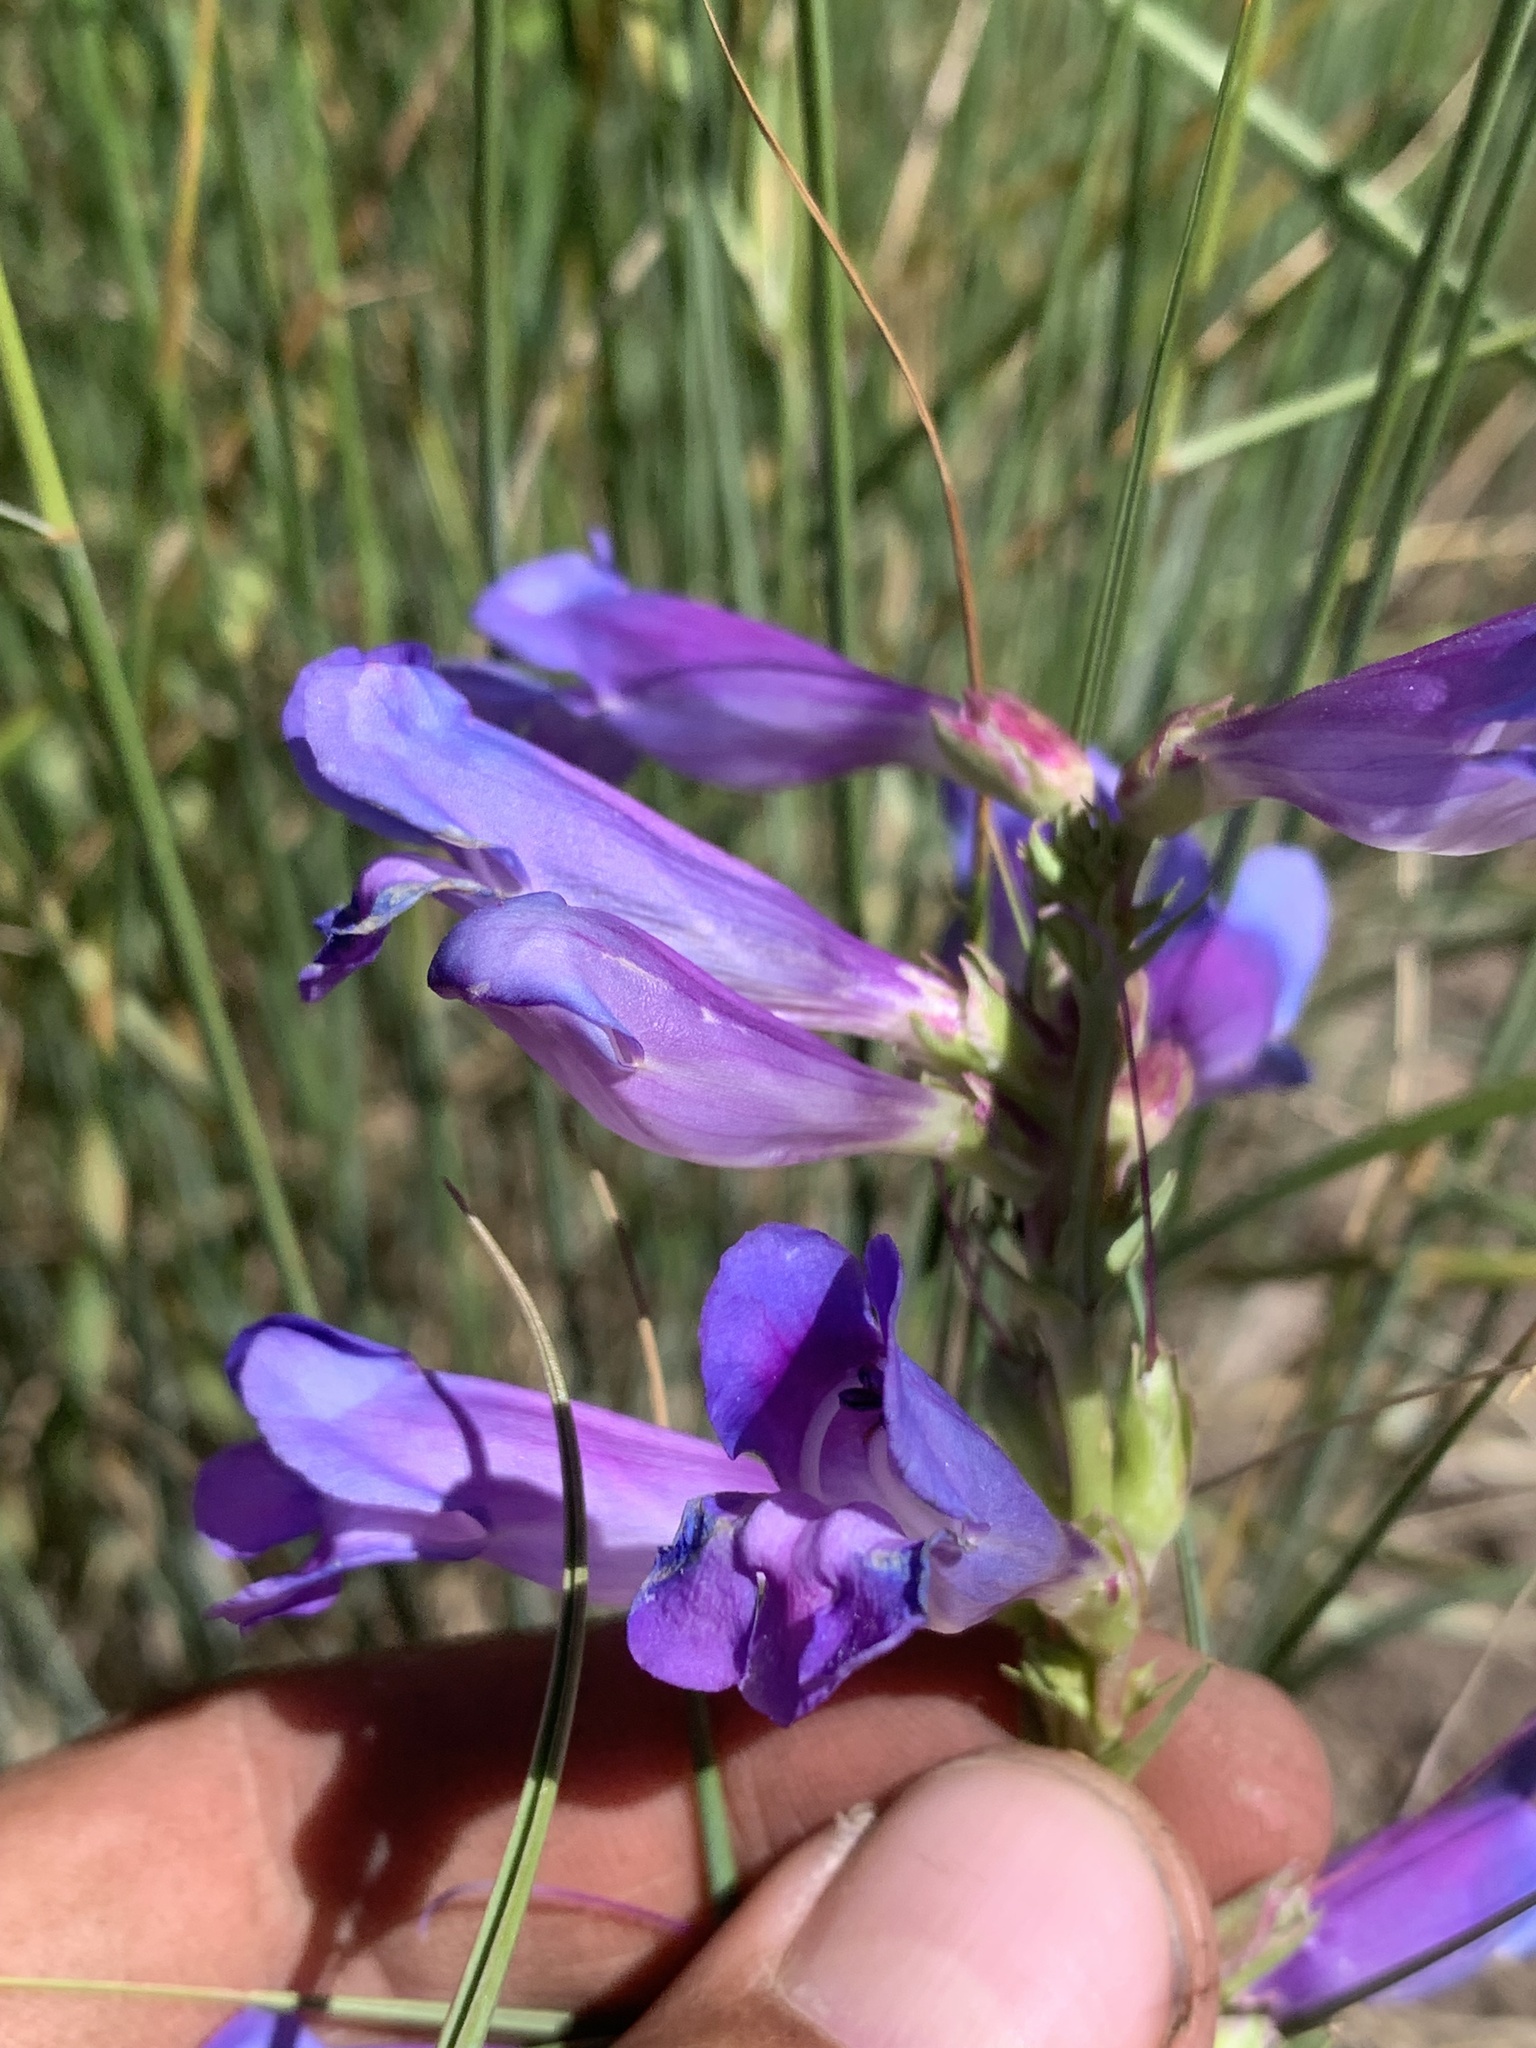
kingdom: Plantae
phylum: Tracheophyta
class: Magnoliopsida
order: Lamiales
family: Plantaginaceae
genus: Penstemon
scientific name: Penstemon speciosus
